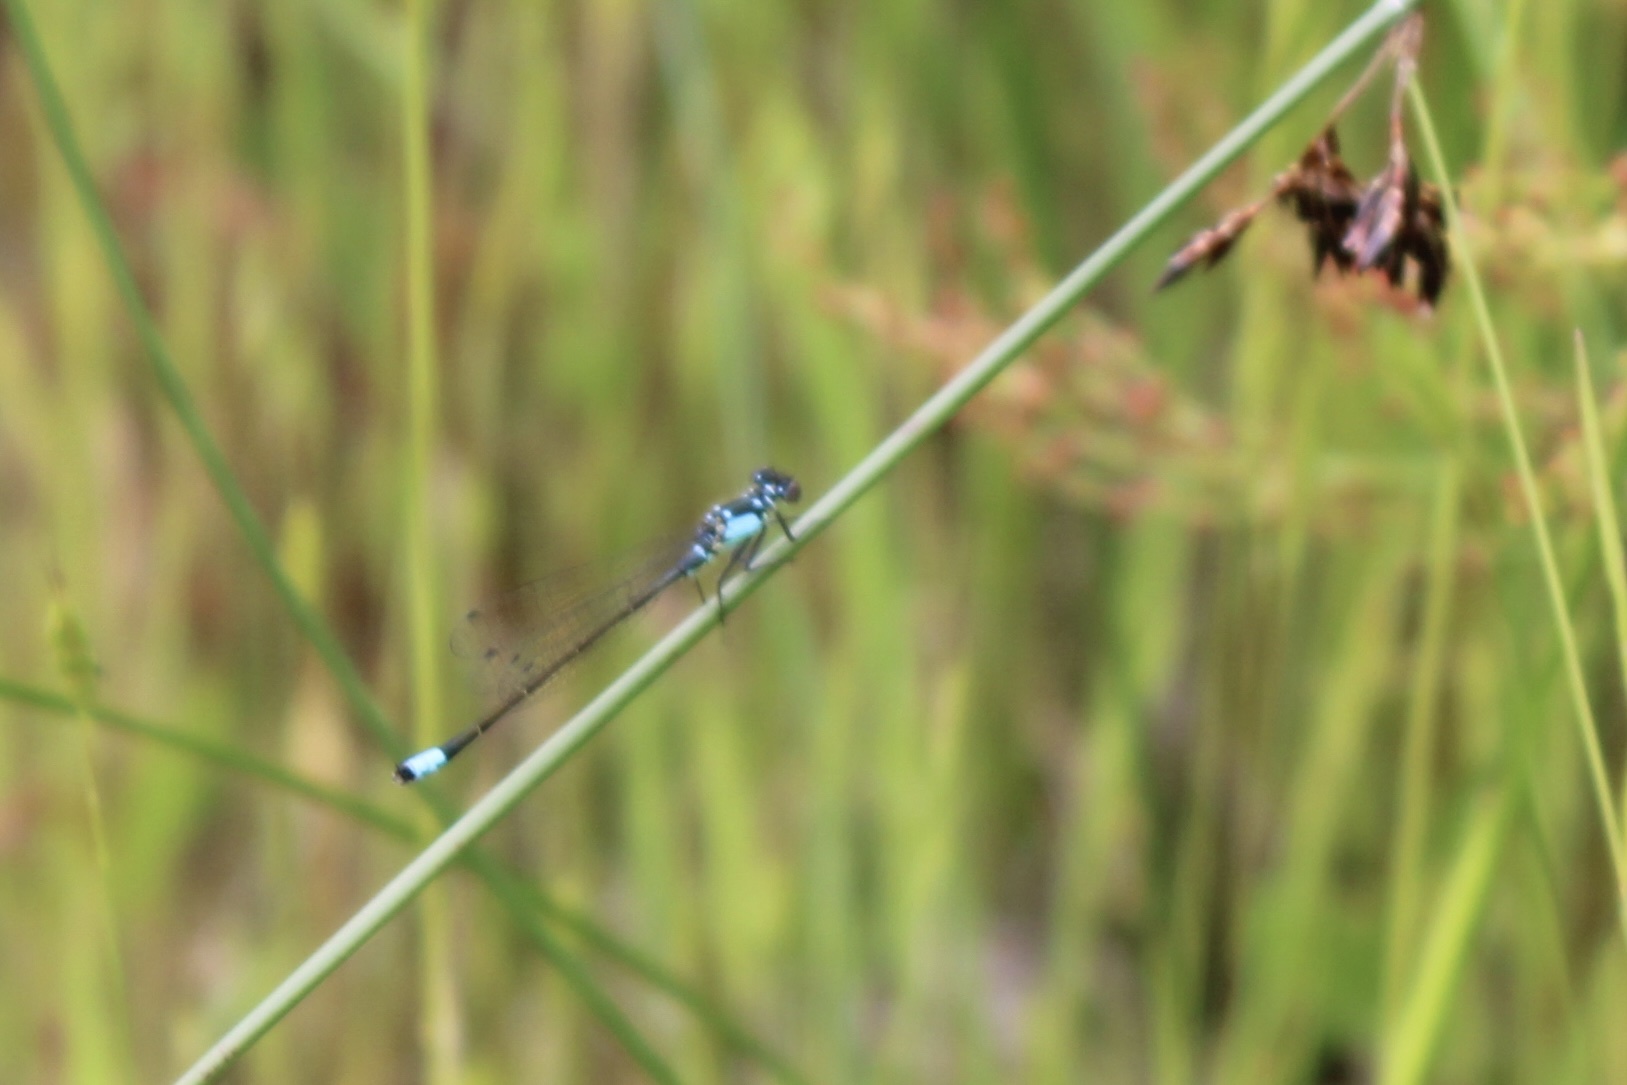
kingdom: Animalia
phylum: Arthropoda
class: Insecta
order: Odonata
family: Coenagrionidae
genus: Ischnura
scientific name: Ischnura cervula
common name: Pacific forktail
